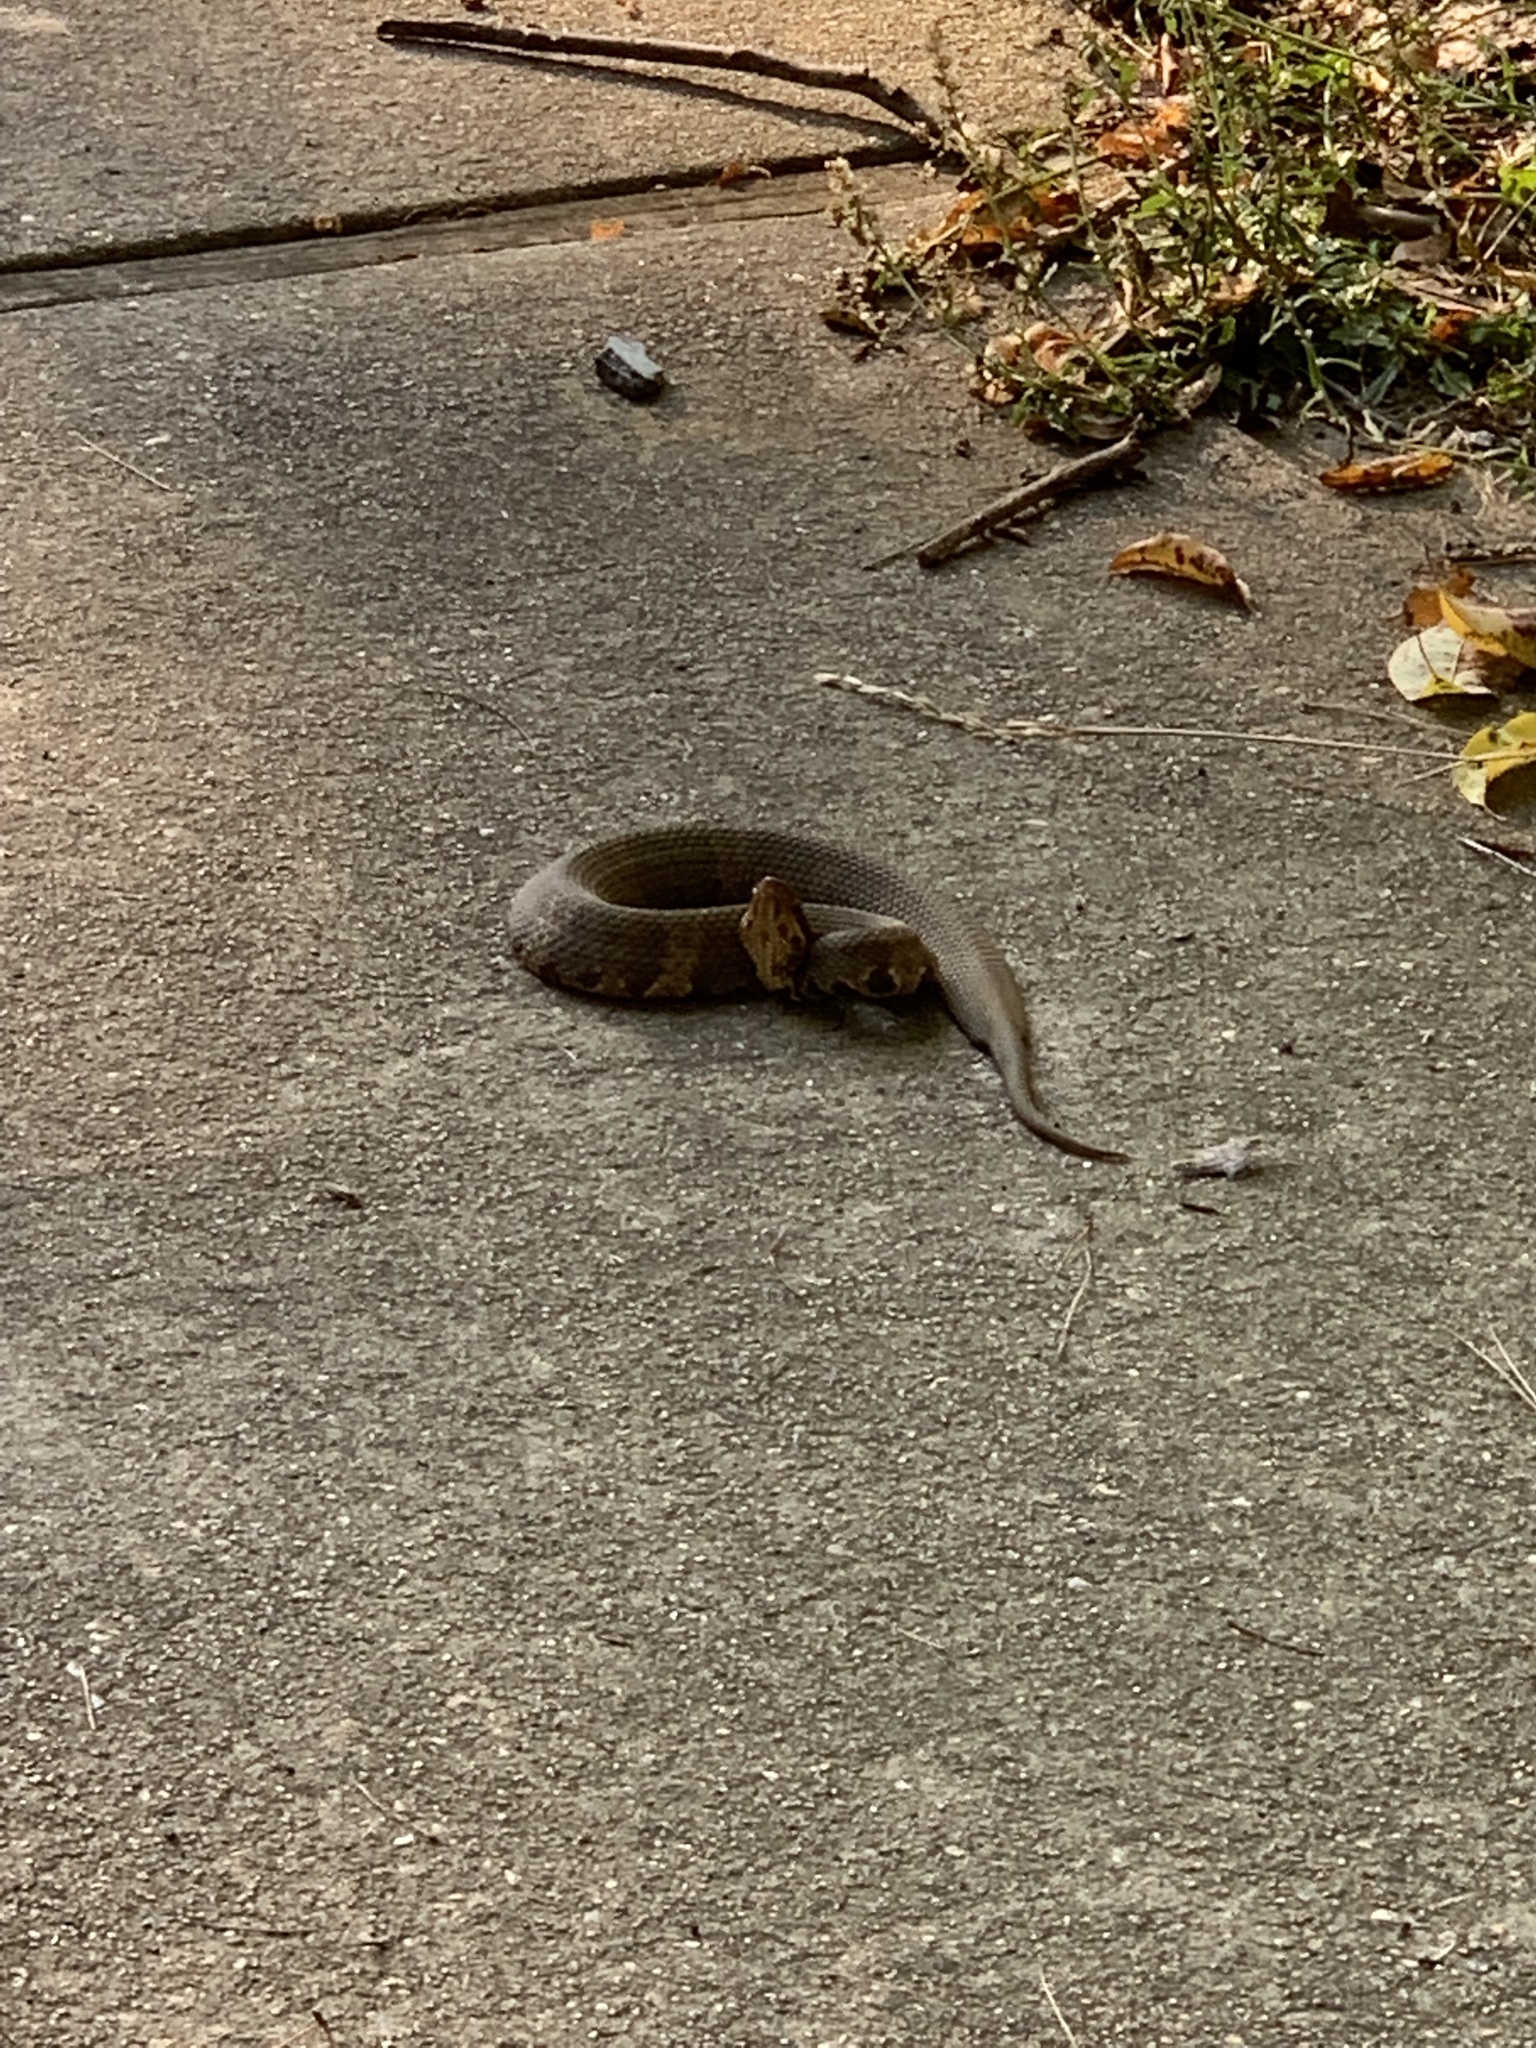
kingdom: Animalia
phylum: Chordata
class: Squamata
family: Viperidae
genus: Agkistrodon
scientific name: Agkistrodon piscivorus
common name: Cottonmouth
